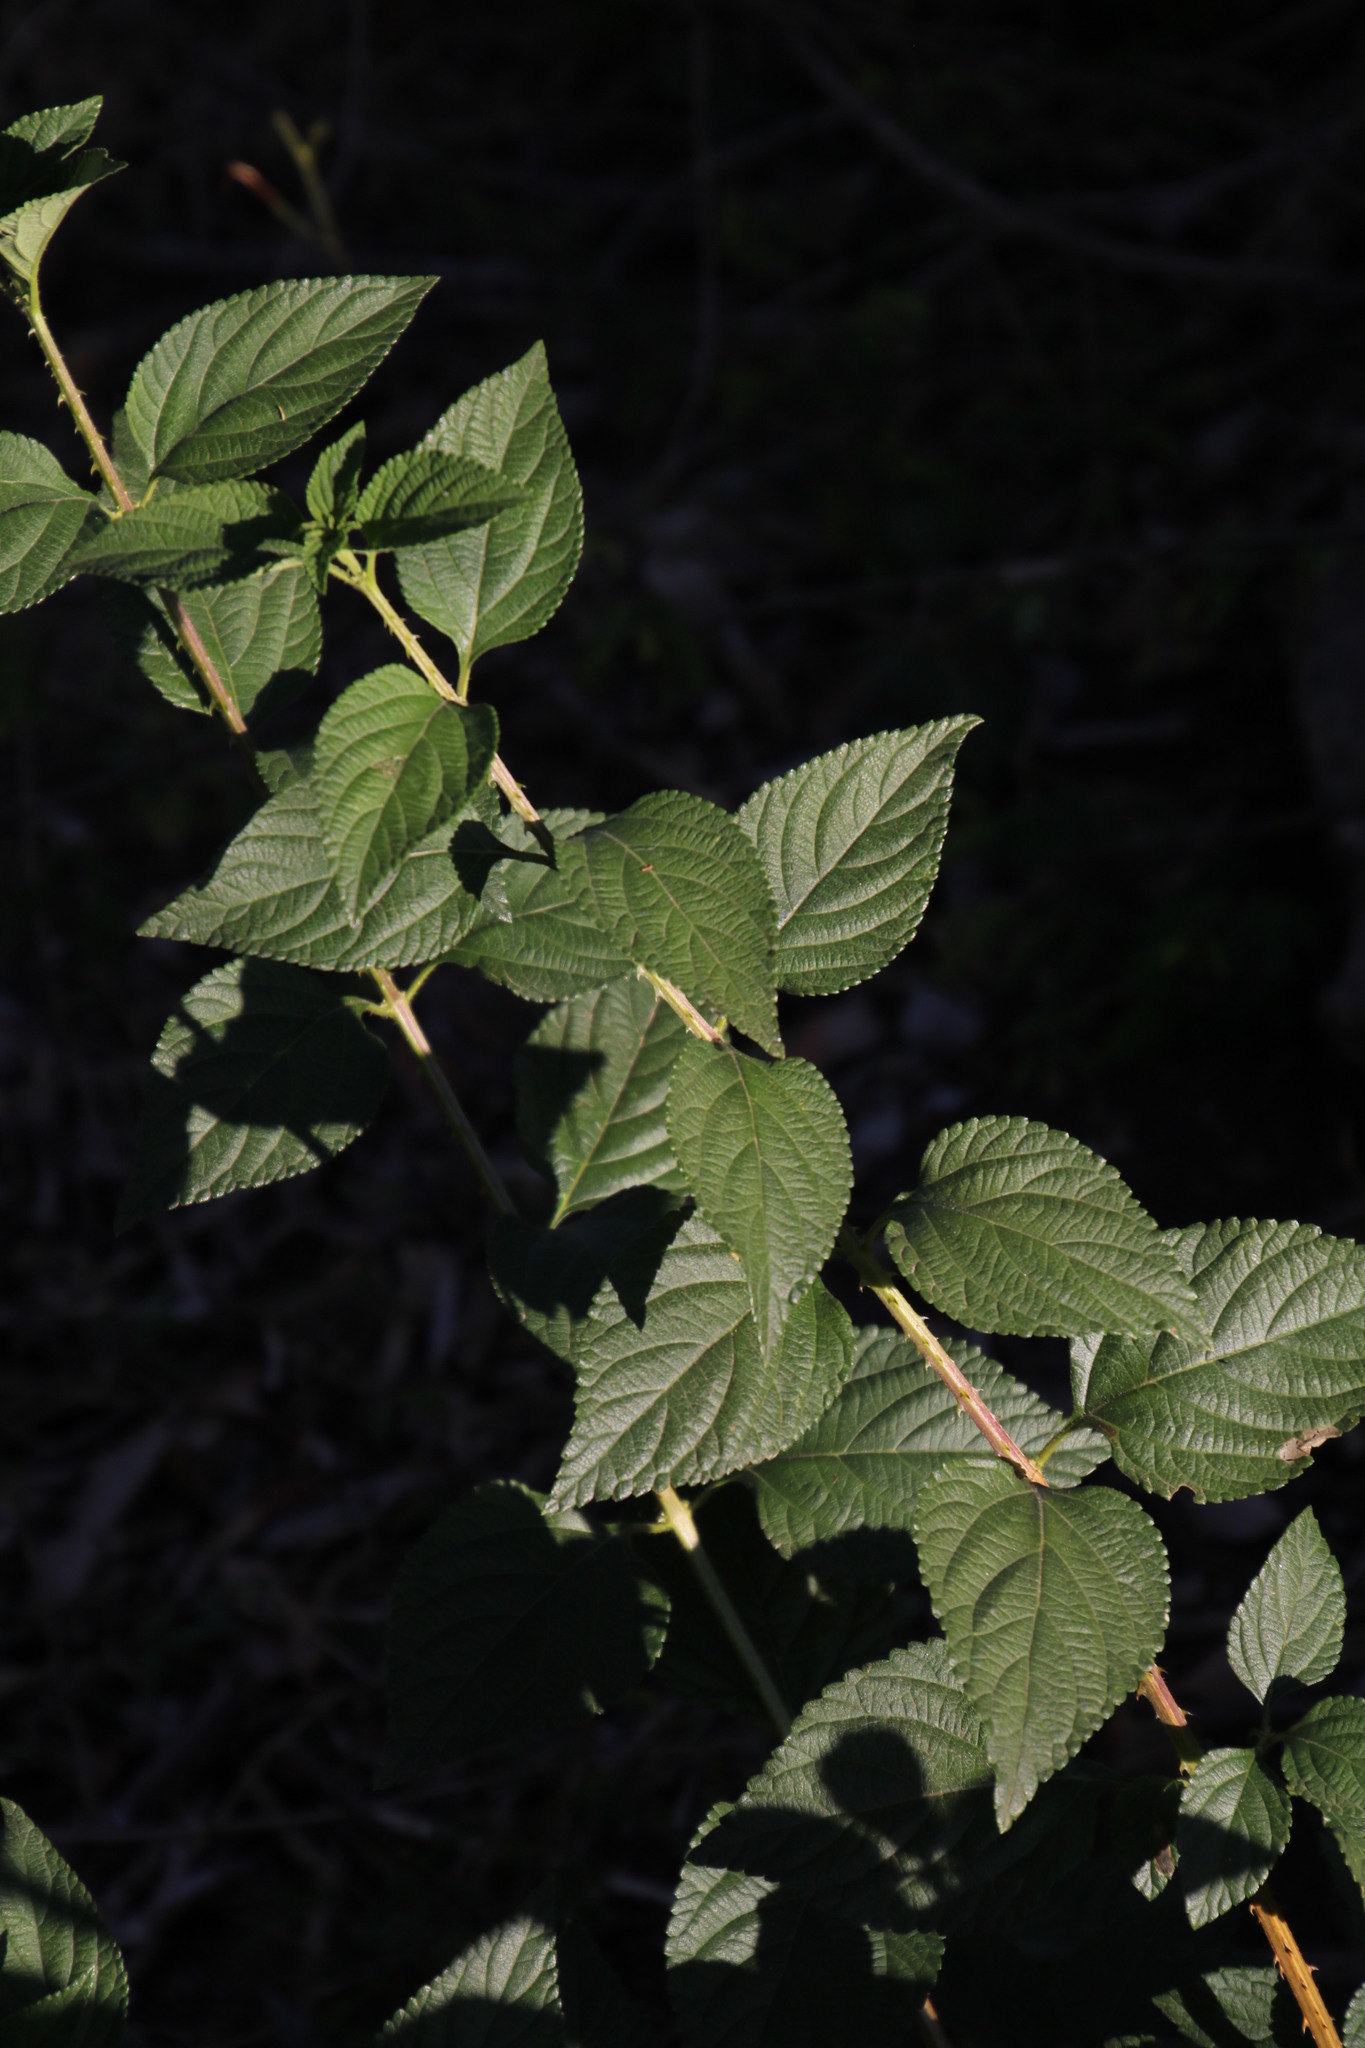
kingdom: Plantae
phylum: Tracheophyta
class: Magnoliopsida
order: Lamiales
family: Verbenaceae
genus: Lantana
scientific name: Lantana camara
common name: Lantana
